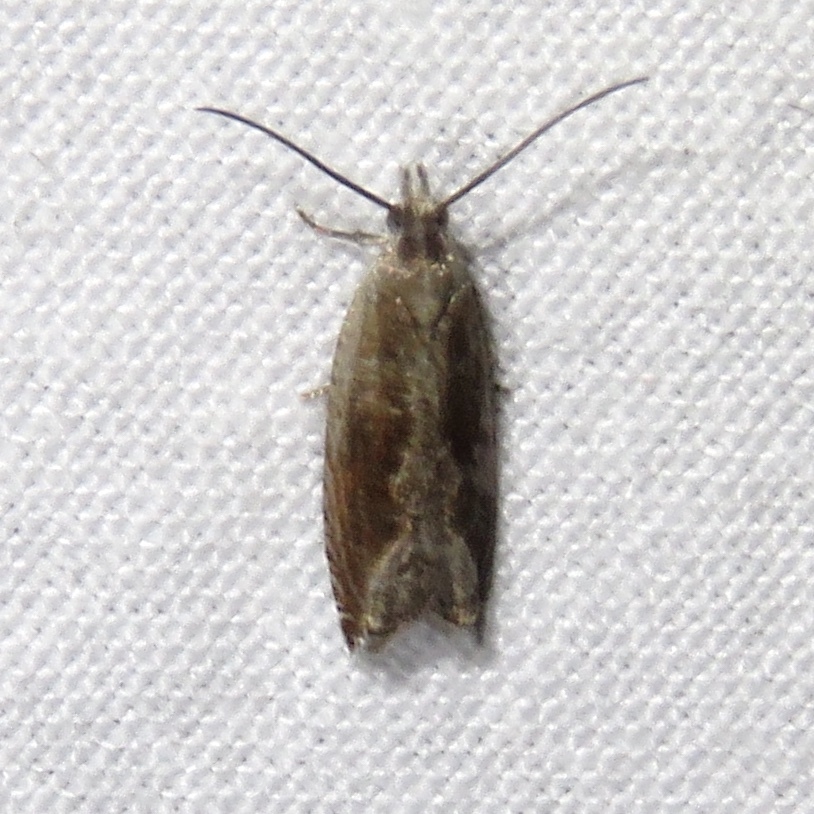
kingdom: Animalia
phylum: Arthropoda
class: Insecta
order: Lepidoptera
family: Tortricidae
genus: Ancylis
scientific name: Ancylis diminuatana
